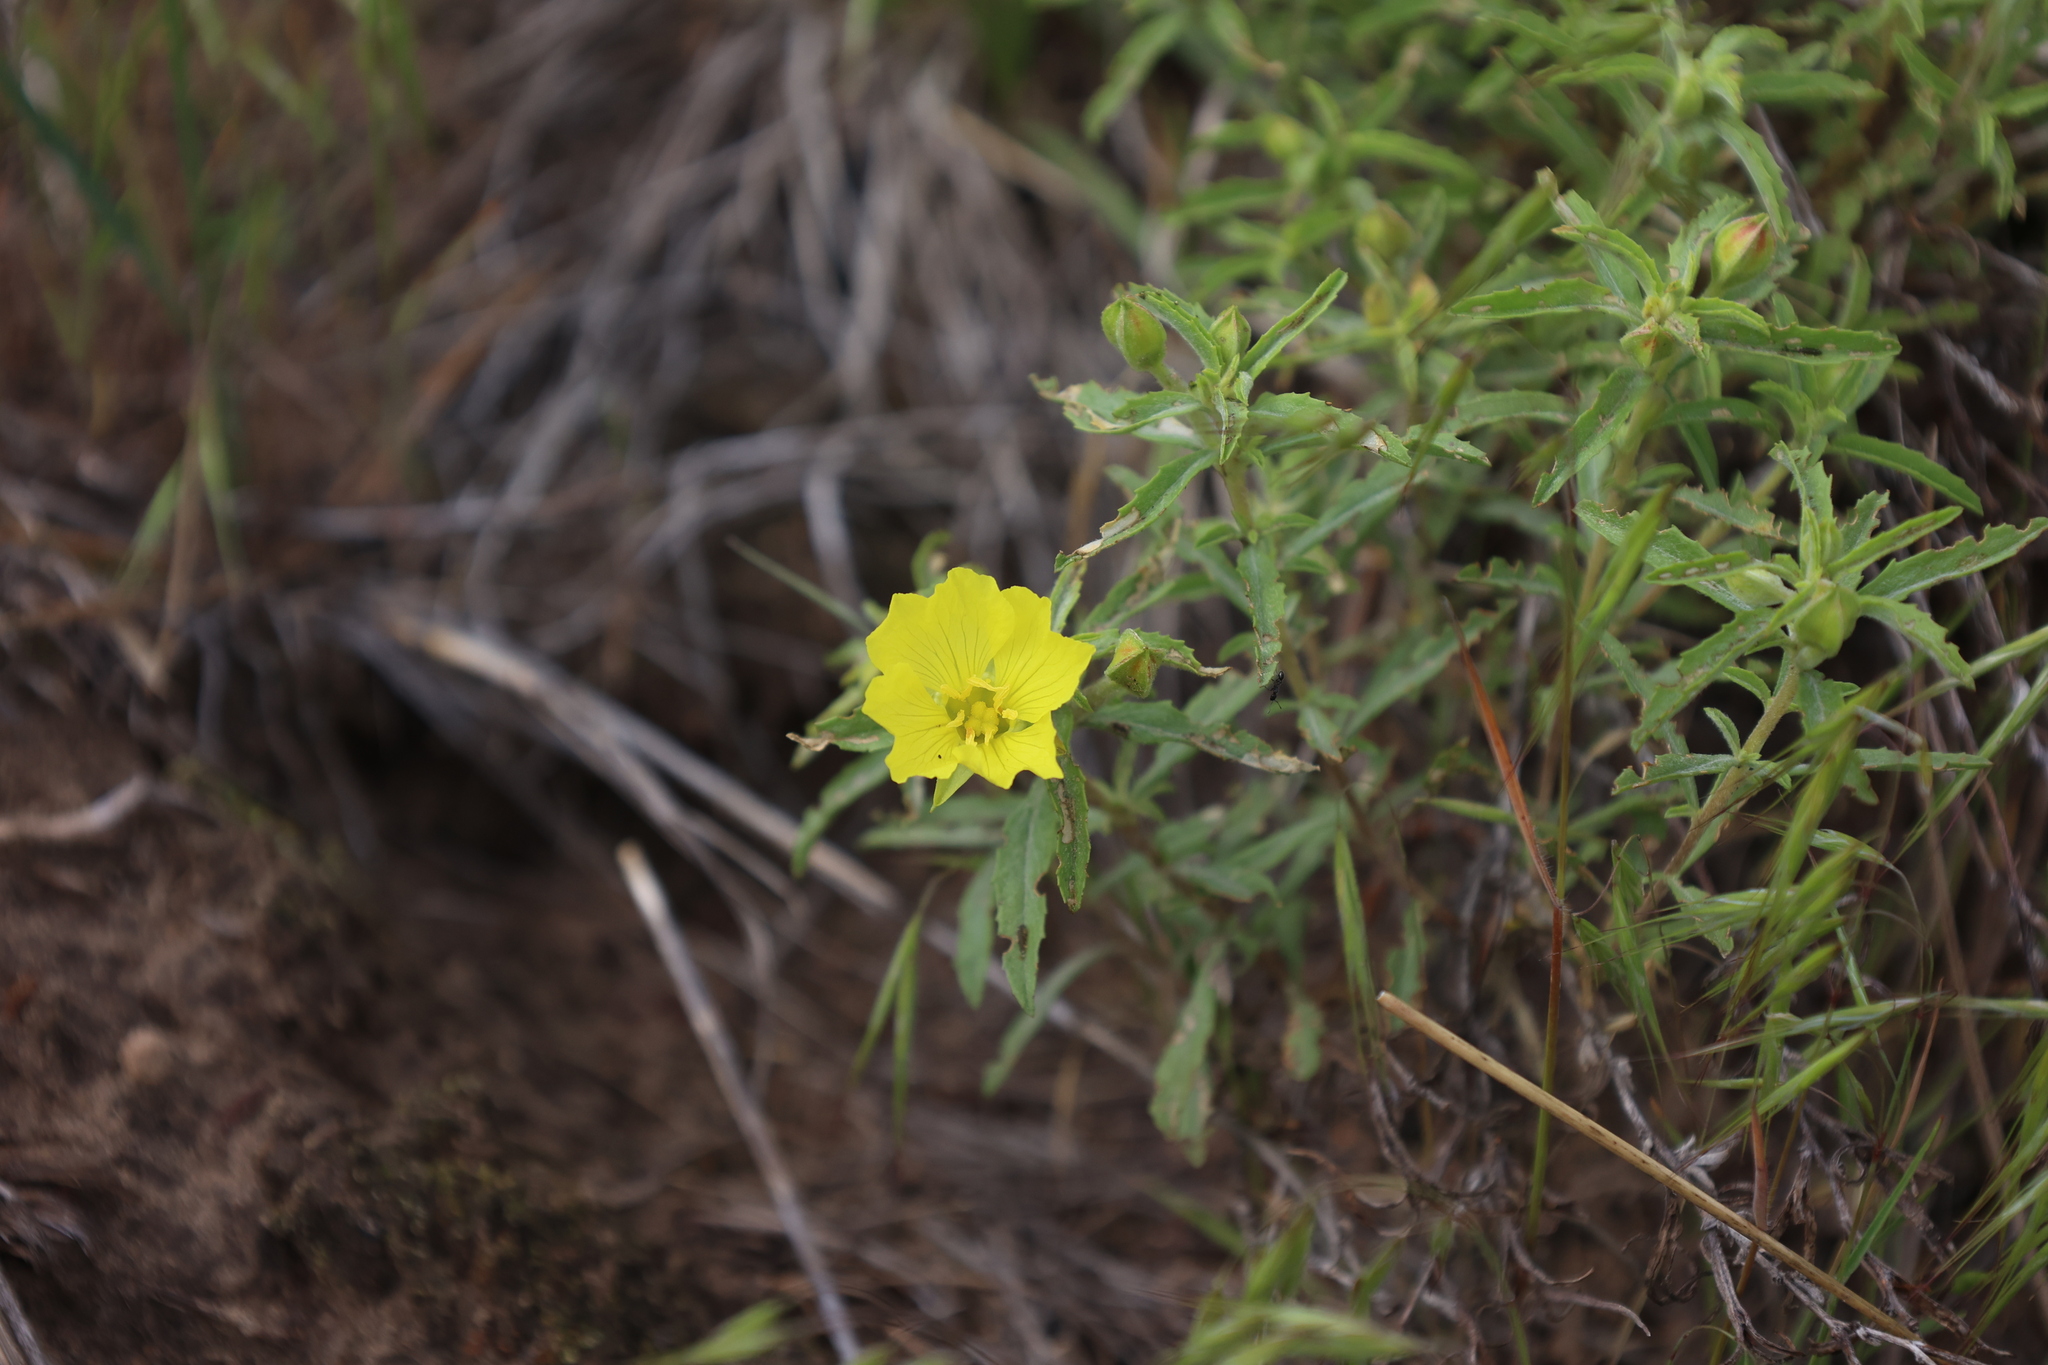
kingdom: Plantae
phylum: Tracheophyta
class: Magnoliopsida
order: Myrtales
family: Onagraceae
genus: Oenothera
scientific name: Oenothera serrulata
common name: Half-shrub calylophus
